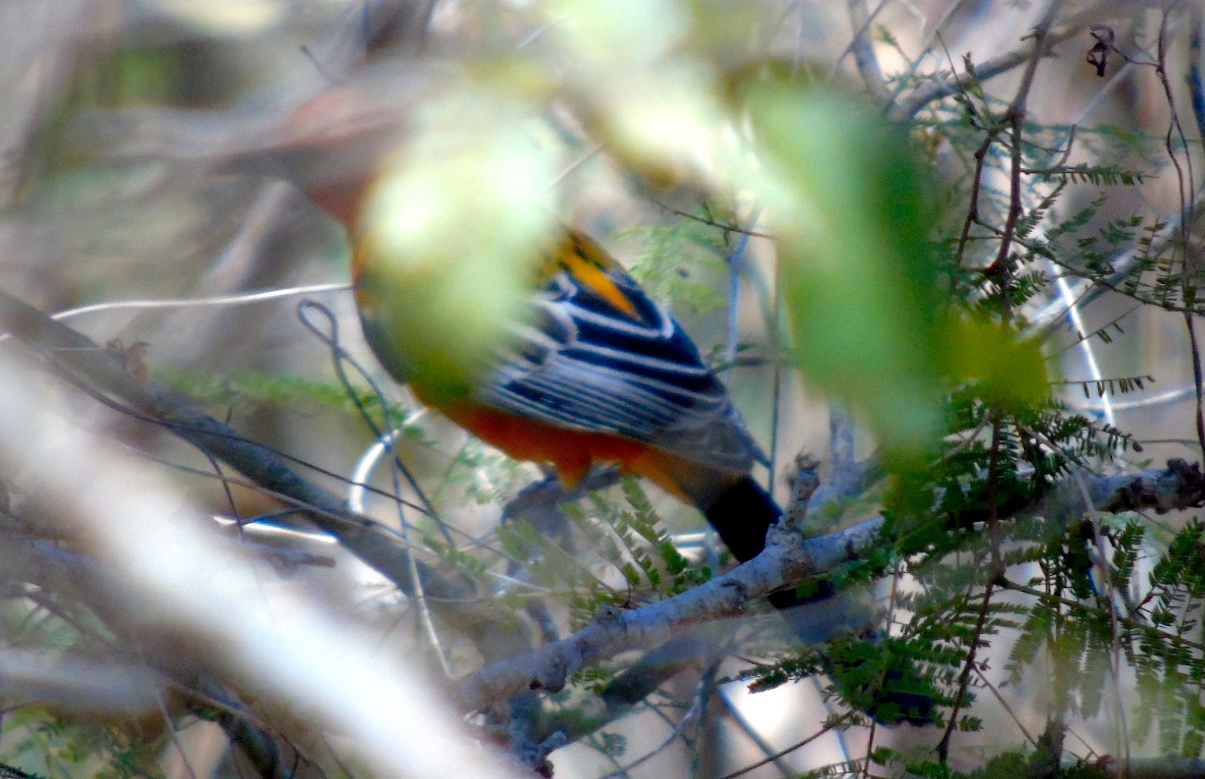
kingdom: Animalia
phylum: Chordata
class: Aves
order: Passeriformes
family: Icteridae
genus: Icterus
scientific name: Icterus pustulatus
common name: Streak-backed oriole
